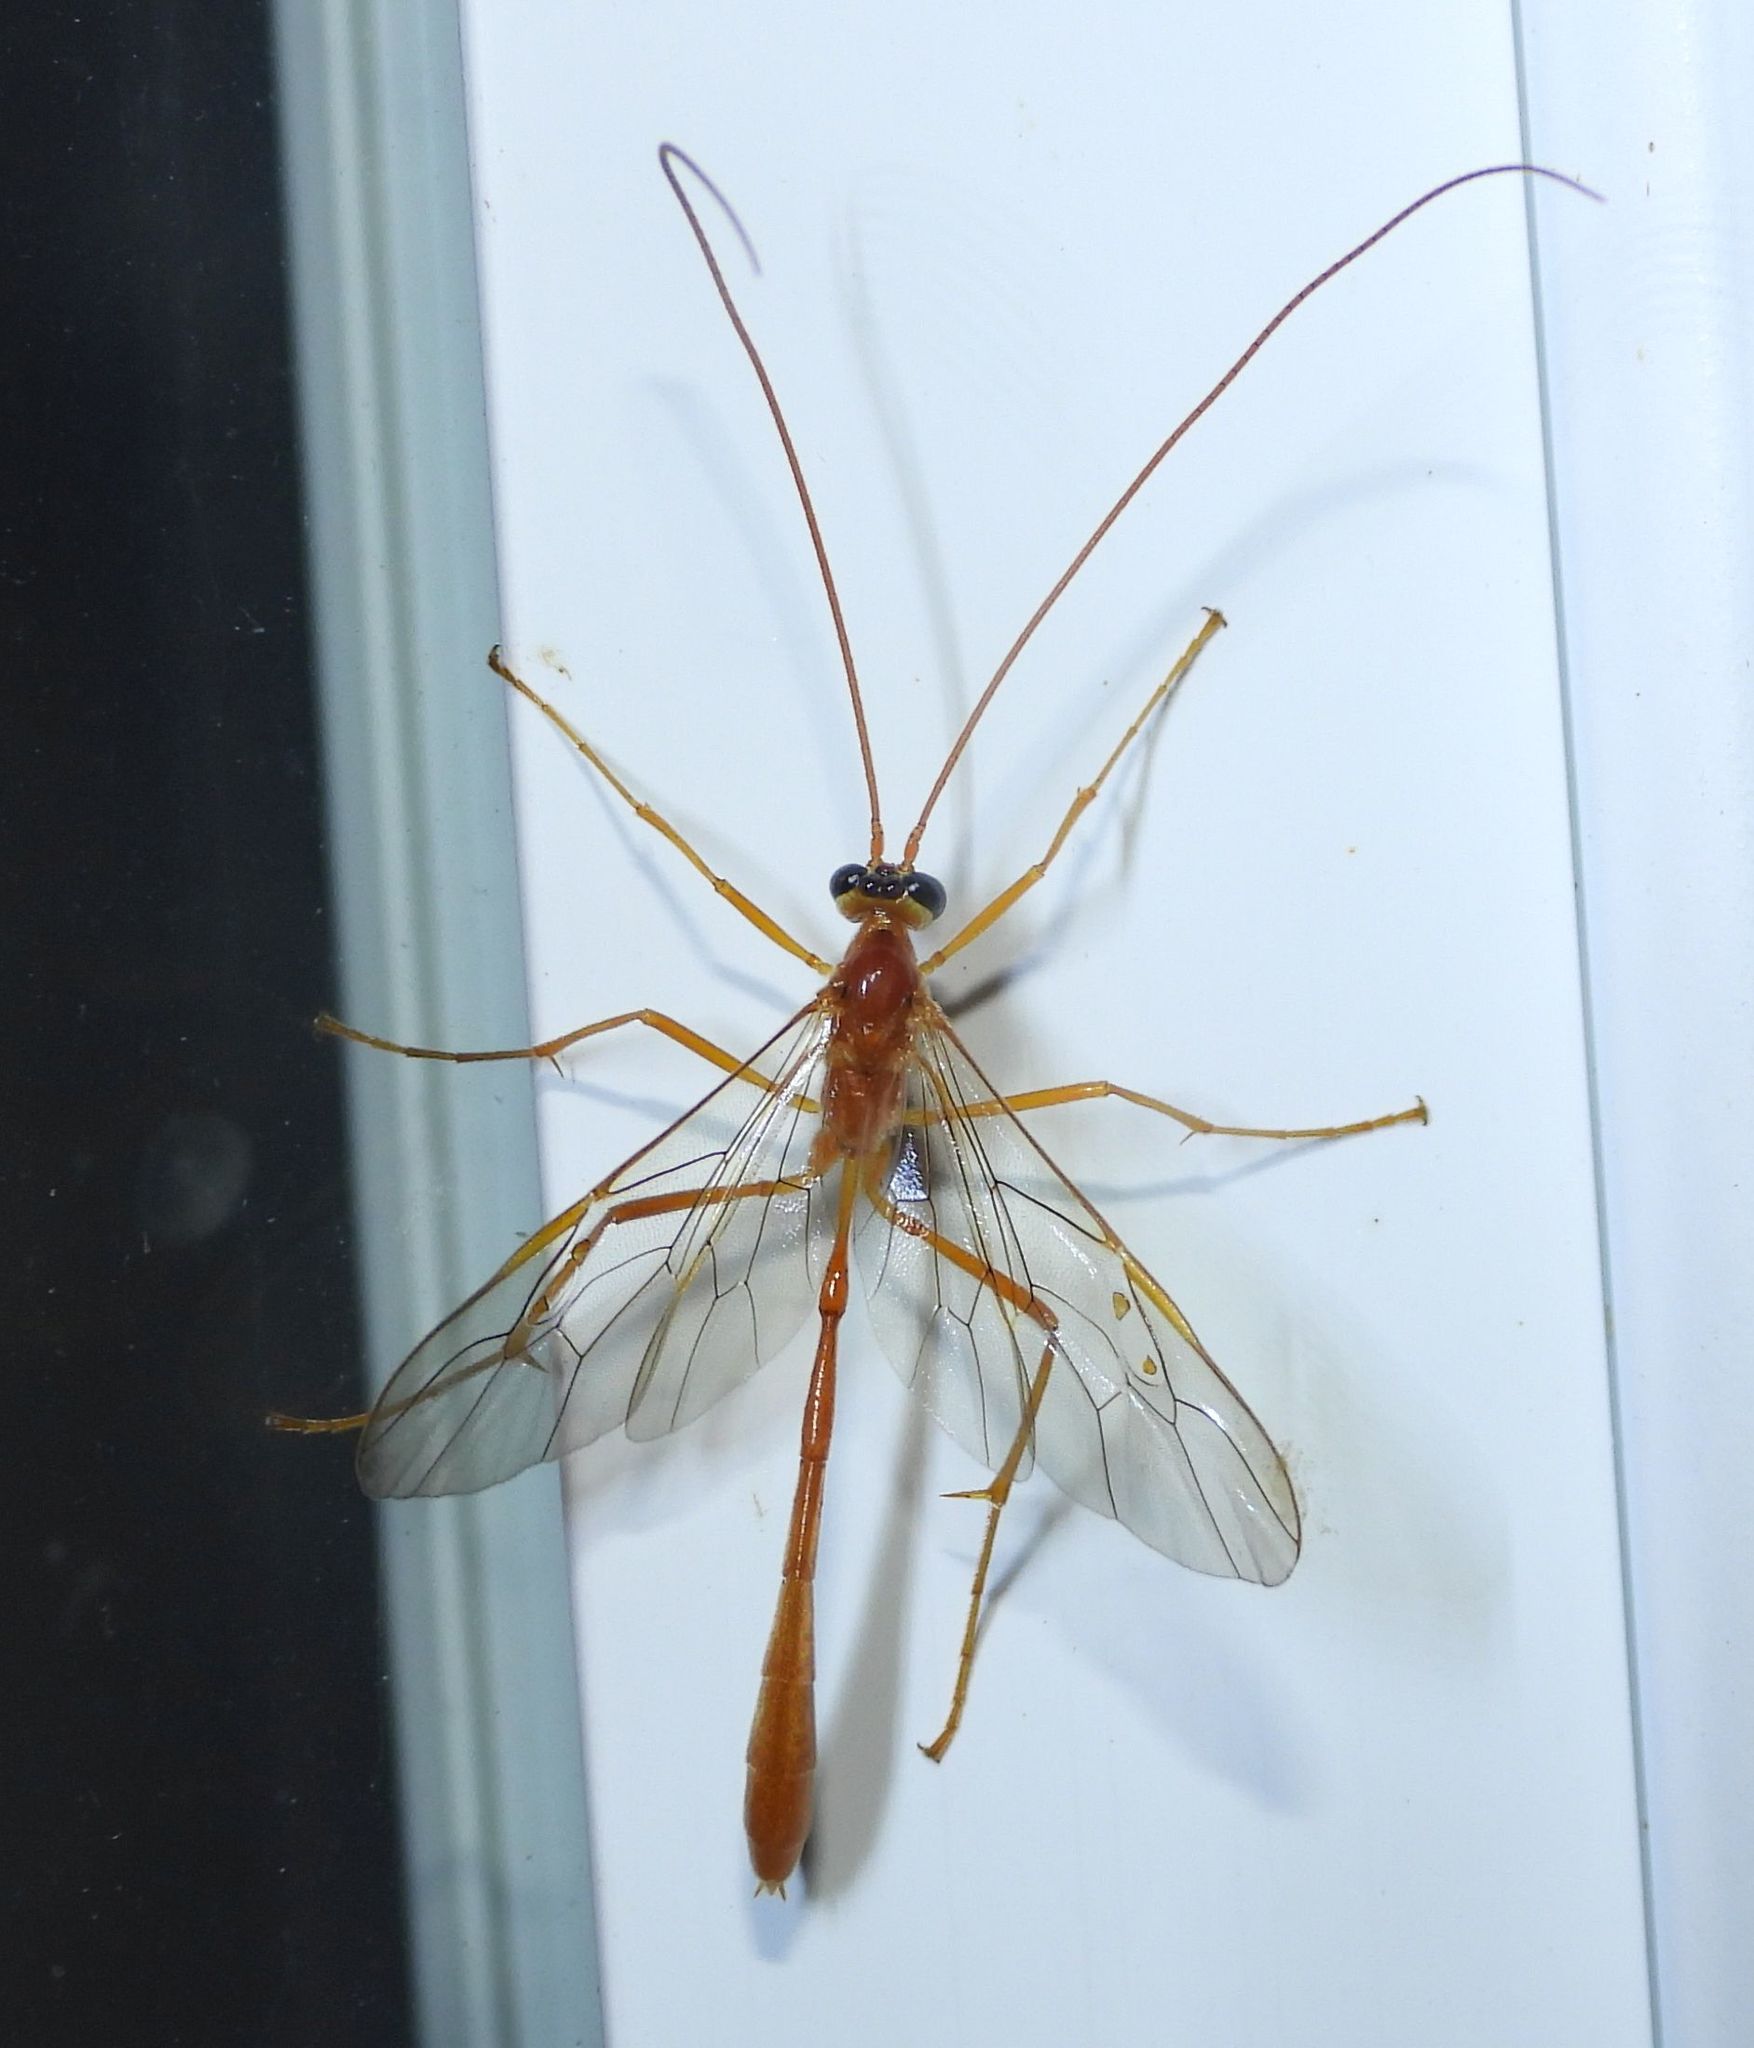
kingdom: Animalia
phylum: Arthropoda
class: Insecta
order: Hymenoptera
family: Ichneumonidae
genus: Enicospilus
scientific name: Enicospilus purgatus
